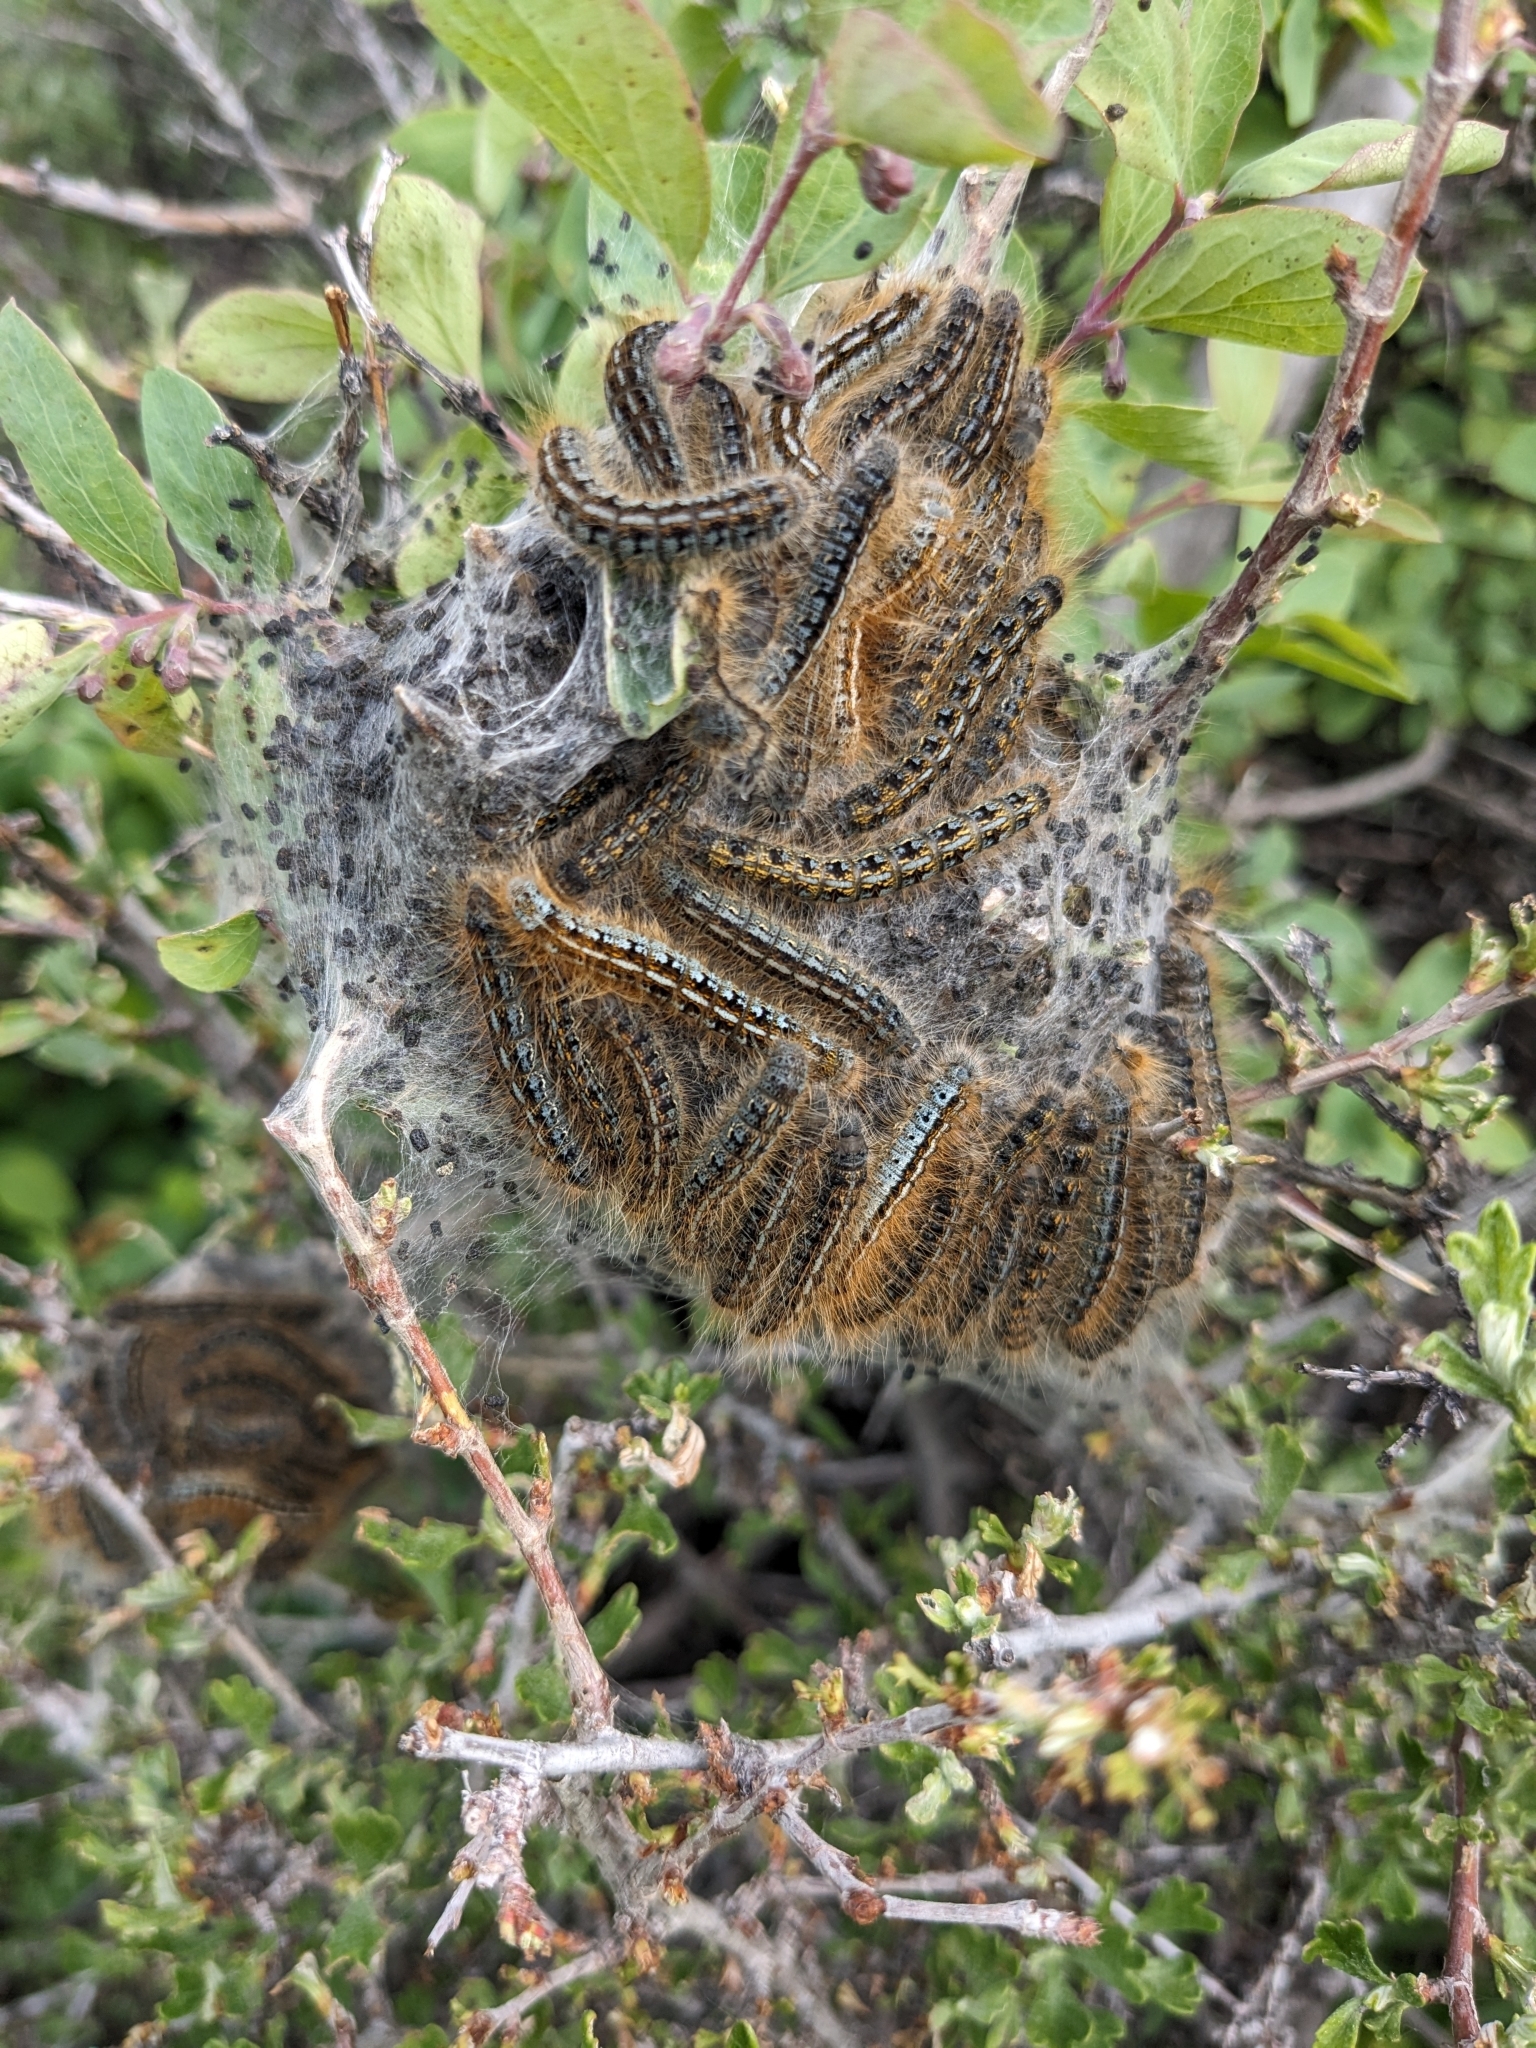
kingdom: Animalia
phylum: Arthropoda
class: Insecta
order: Lepidoptera
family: Lasiocampidae
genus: Malacosoma
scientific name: Malacosoma californica
